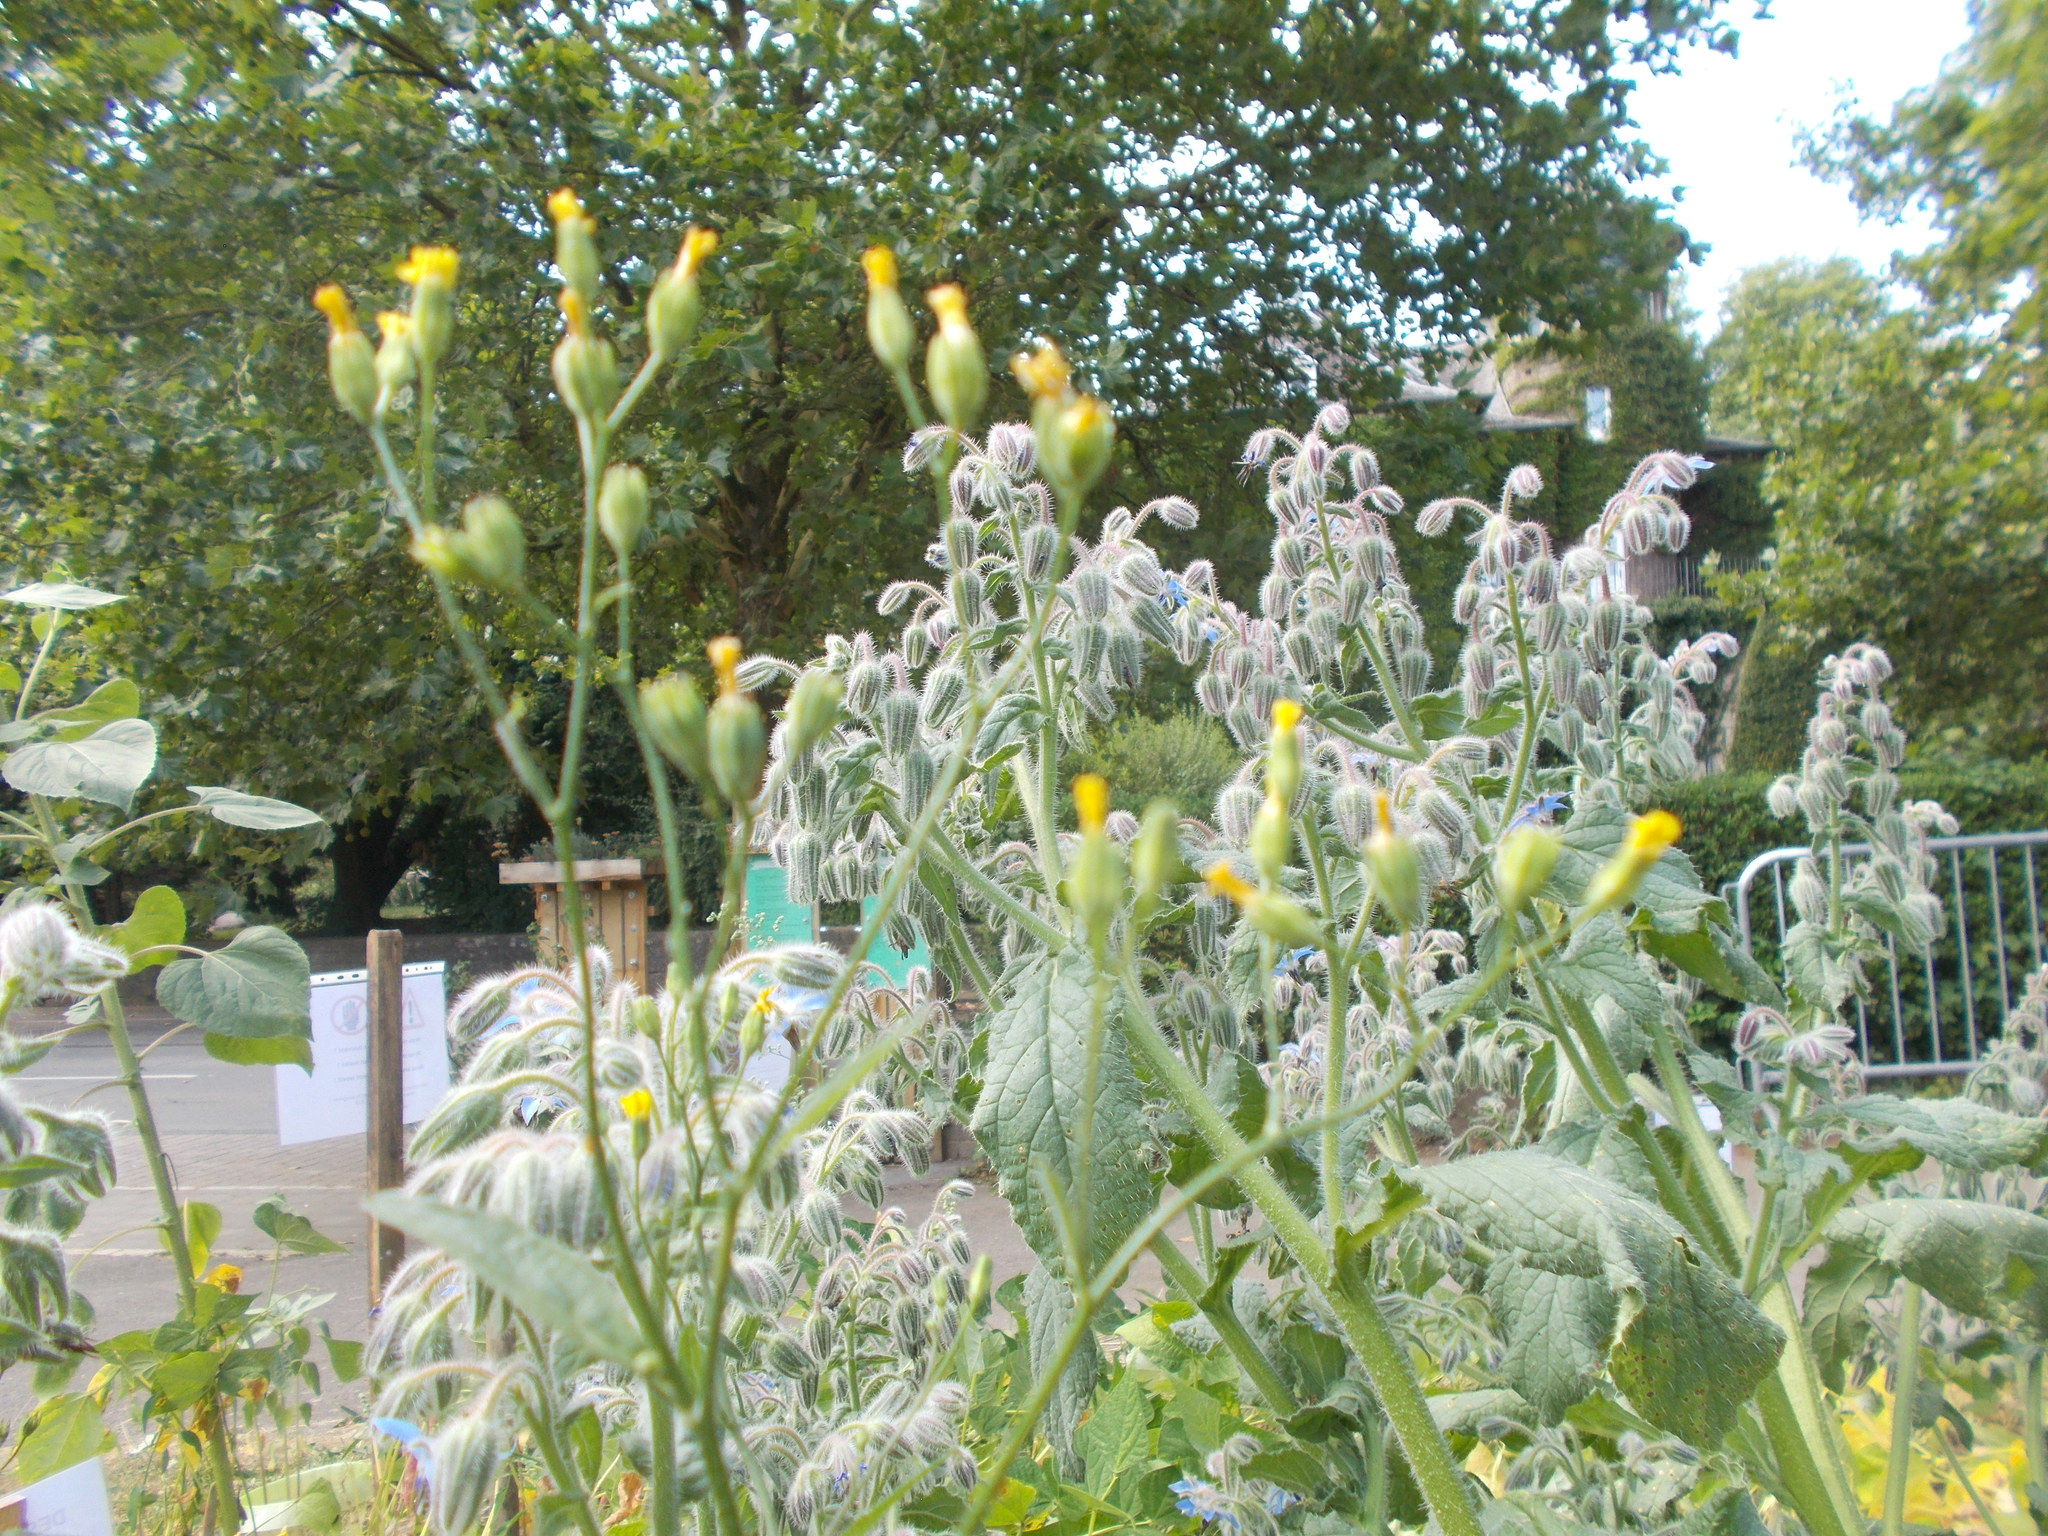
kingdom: Plantae
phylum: Tracheophyta
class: Magnoliopsida
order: Asterales
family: Asteraceae
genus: Lapsana
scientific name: Lapsana communis
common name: Nipplewort
